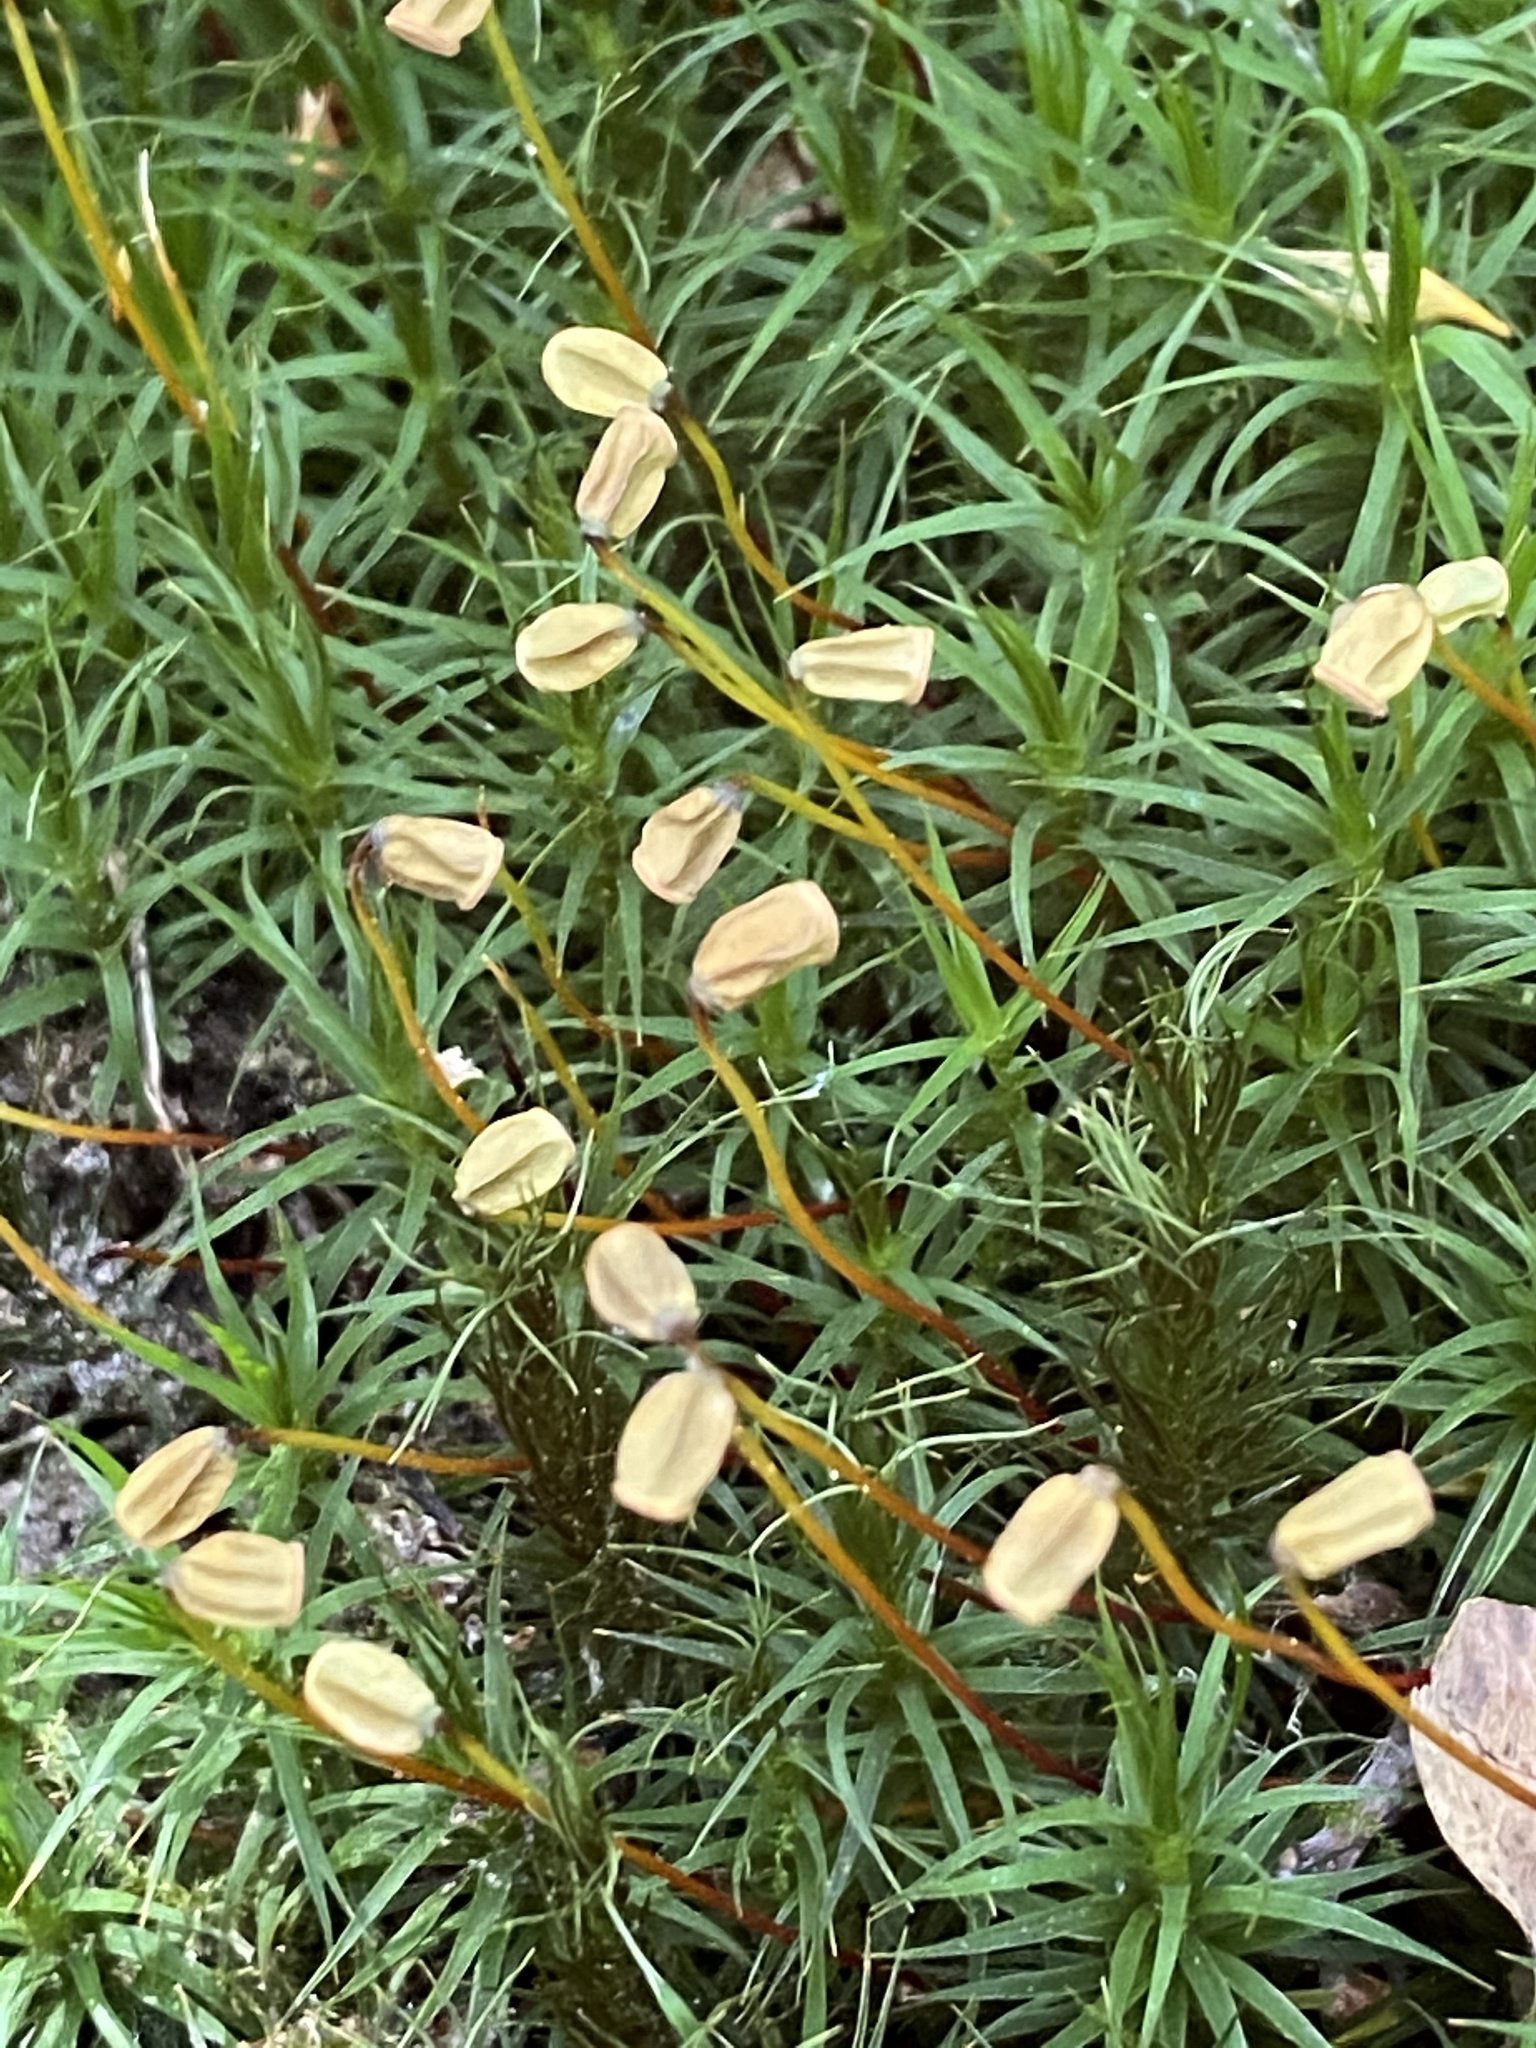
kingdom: Plantae
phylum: Bryophyta
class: Polytrichopsida
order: Polytrichales
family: Polytrichaceae
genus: Polytrichum
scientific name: Polytrichum formosum
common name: Bank haircap moss
